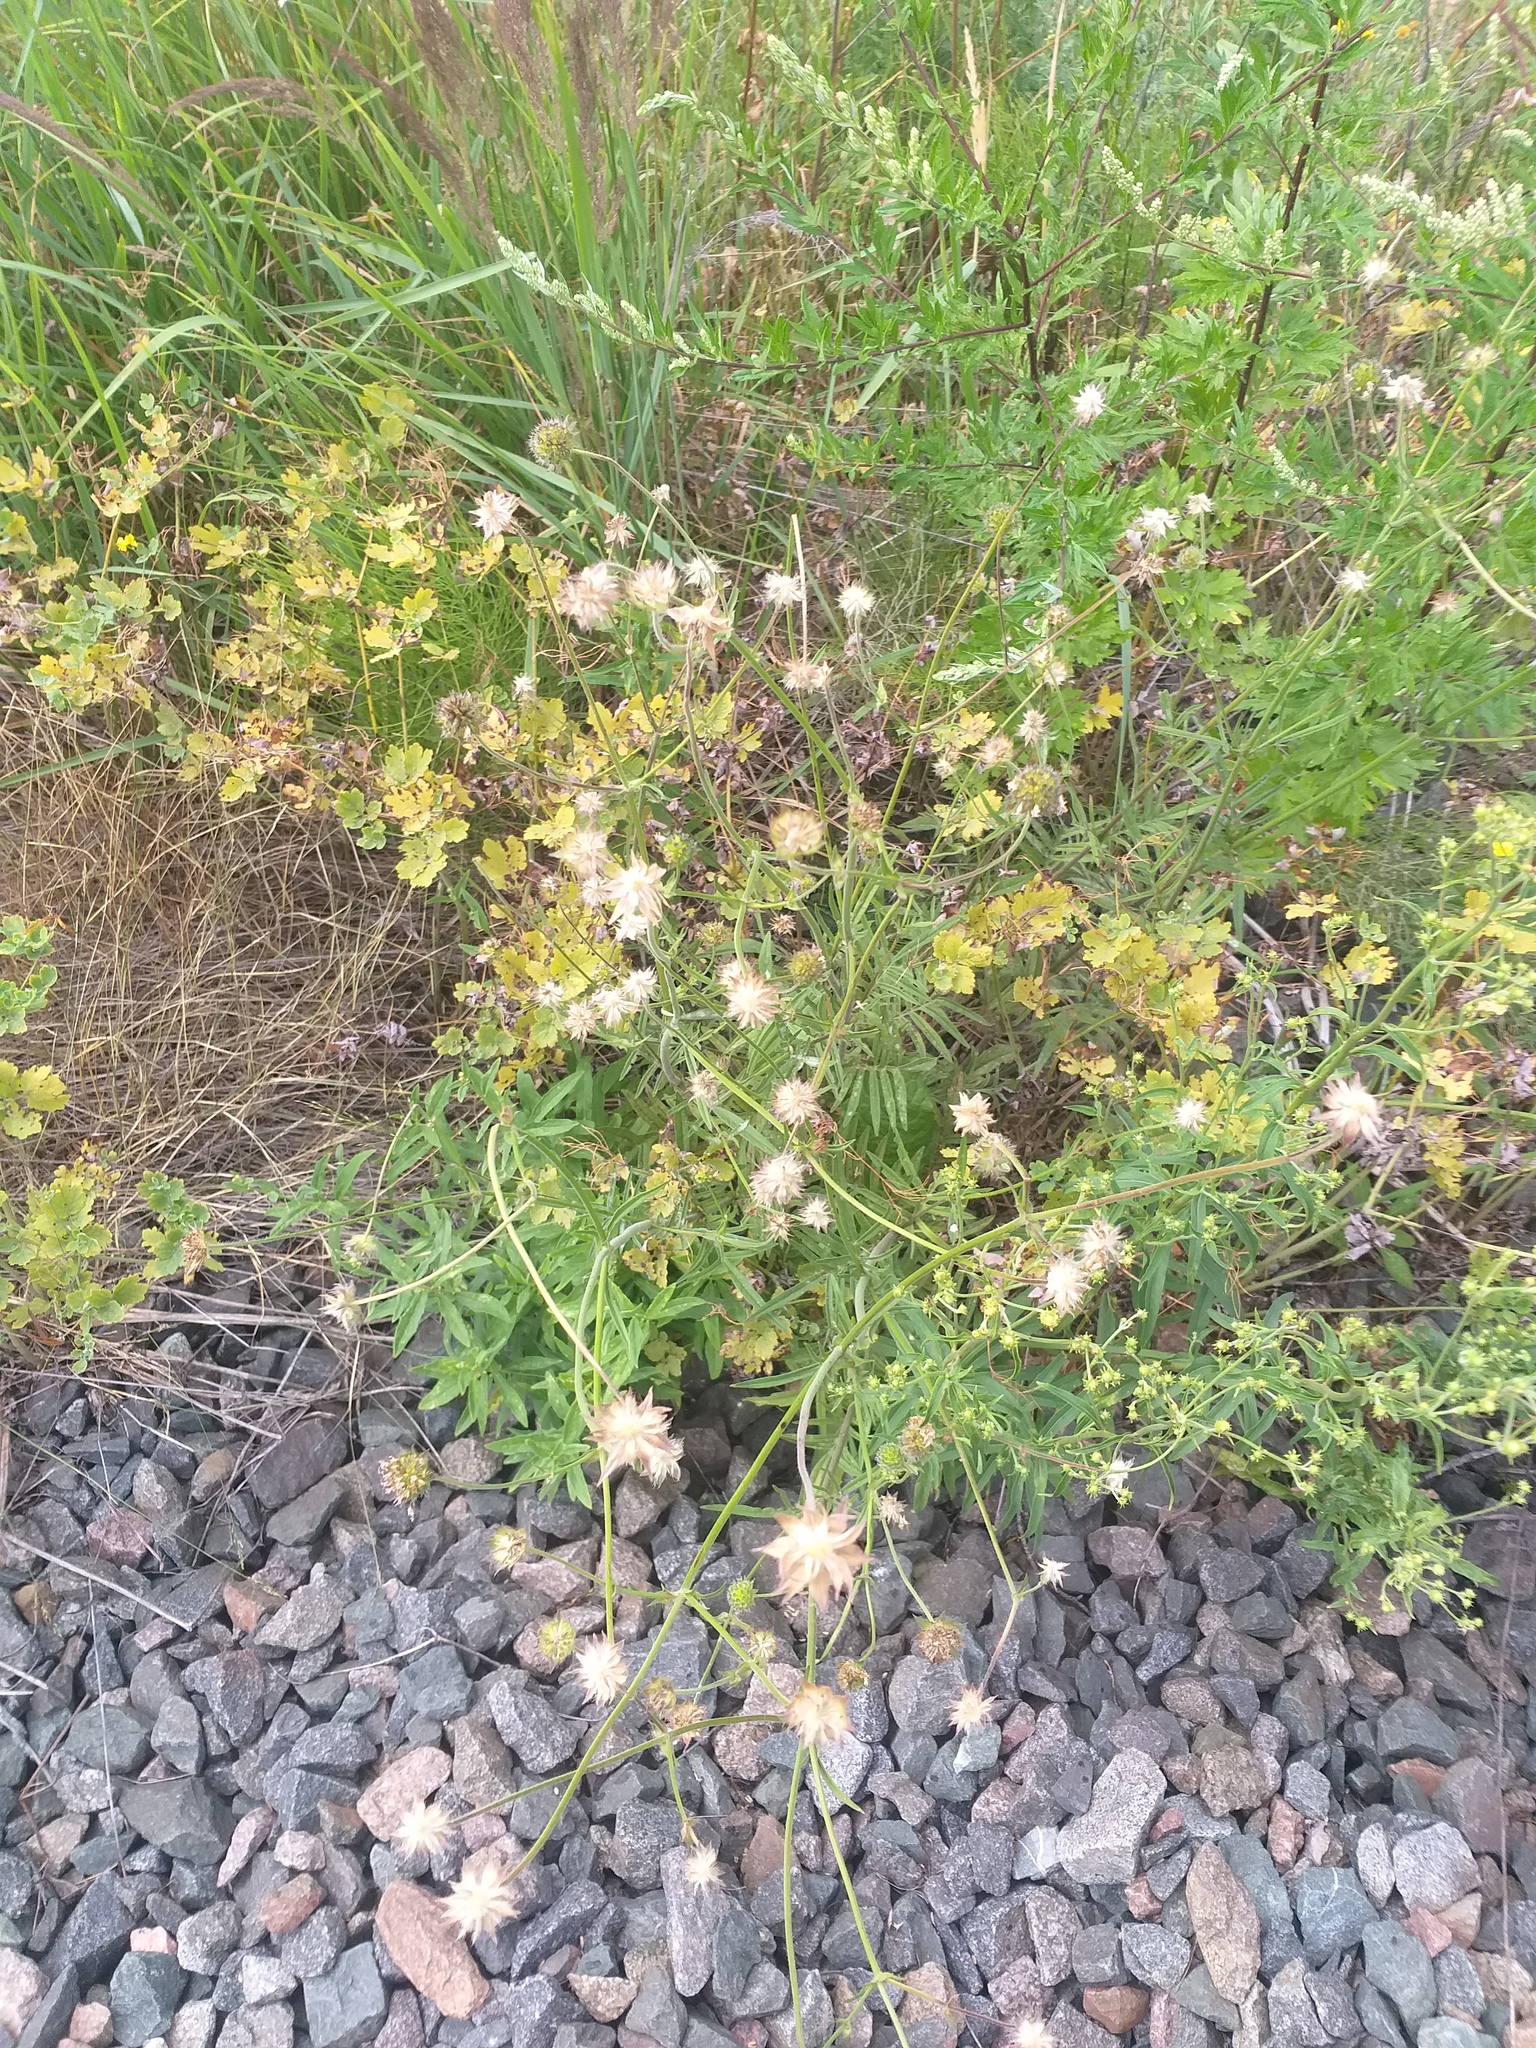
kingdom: Plantae
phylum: Tracheophyta
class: Magnoliopsida
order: Dipsacales
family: Caprifoliaceae
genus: Knautia
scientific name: Knautia arvensis
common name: Field scabiosa
